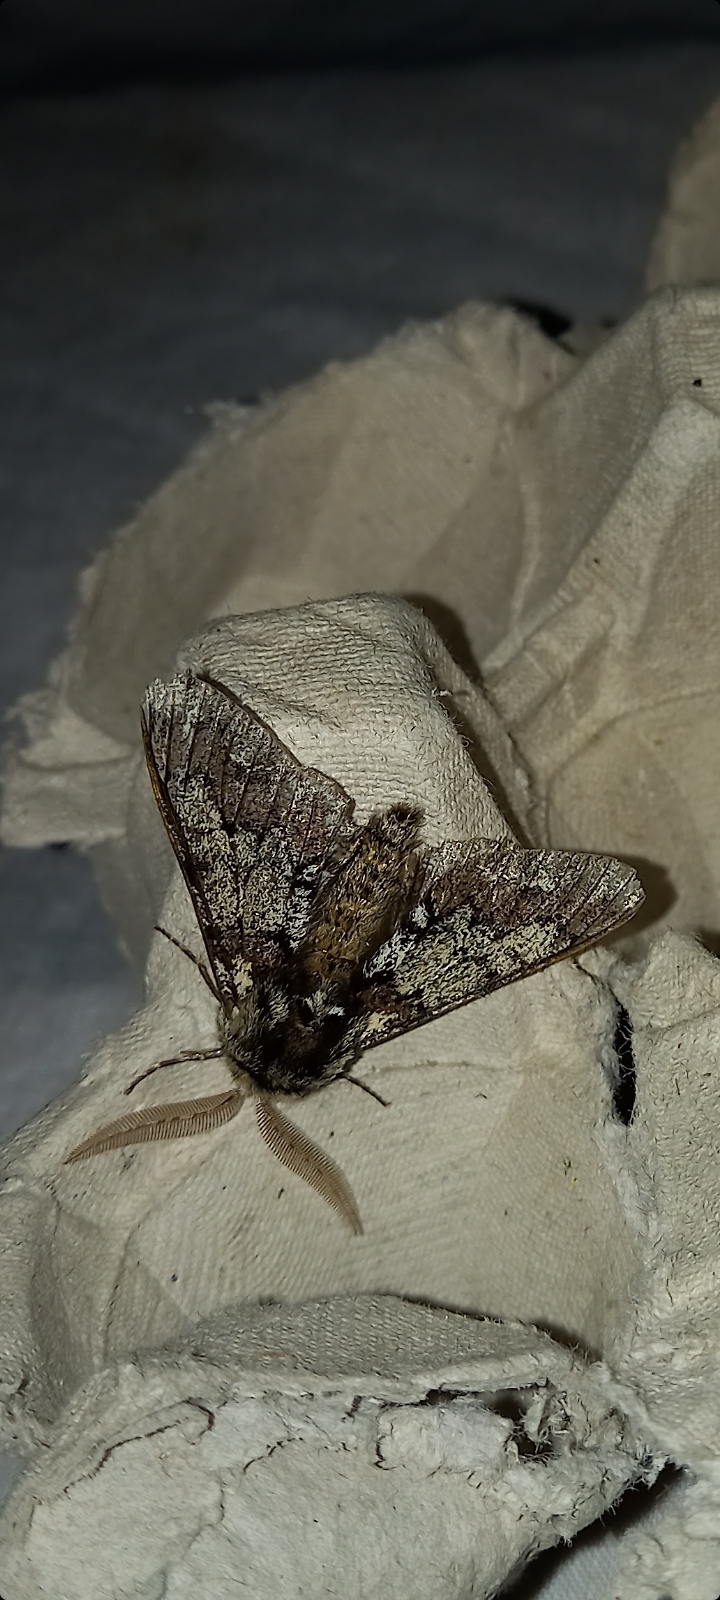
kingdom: Animalia
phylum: Arthropoda
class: Insecta
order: Lepidoptera
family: Geometridae
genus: Biston
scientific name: Biston strataria
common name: Oak beauty
